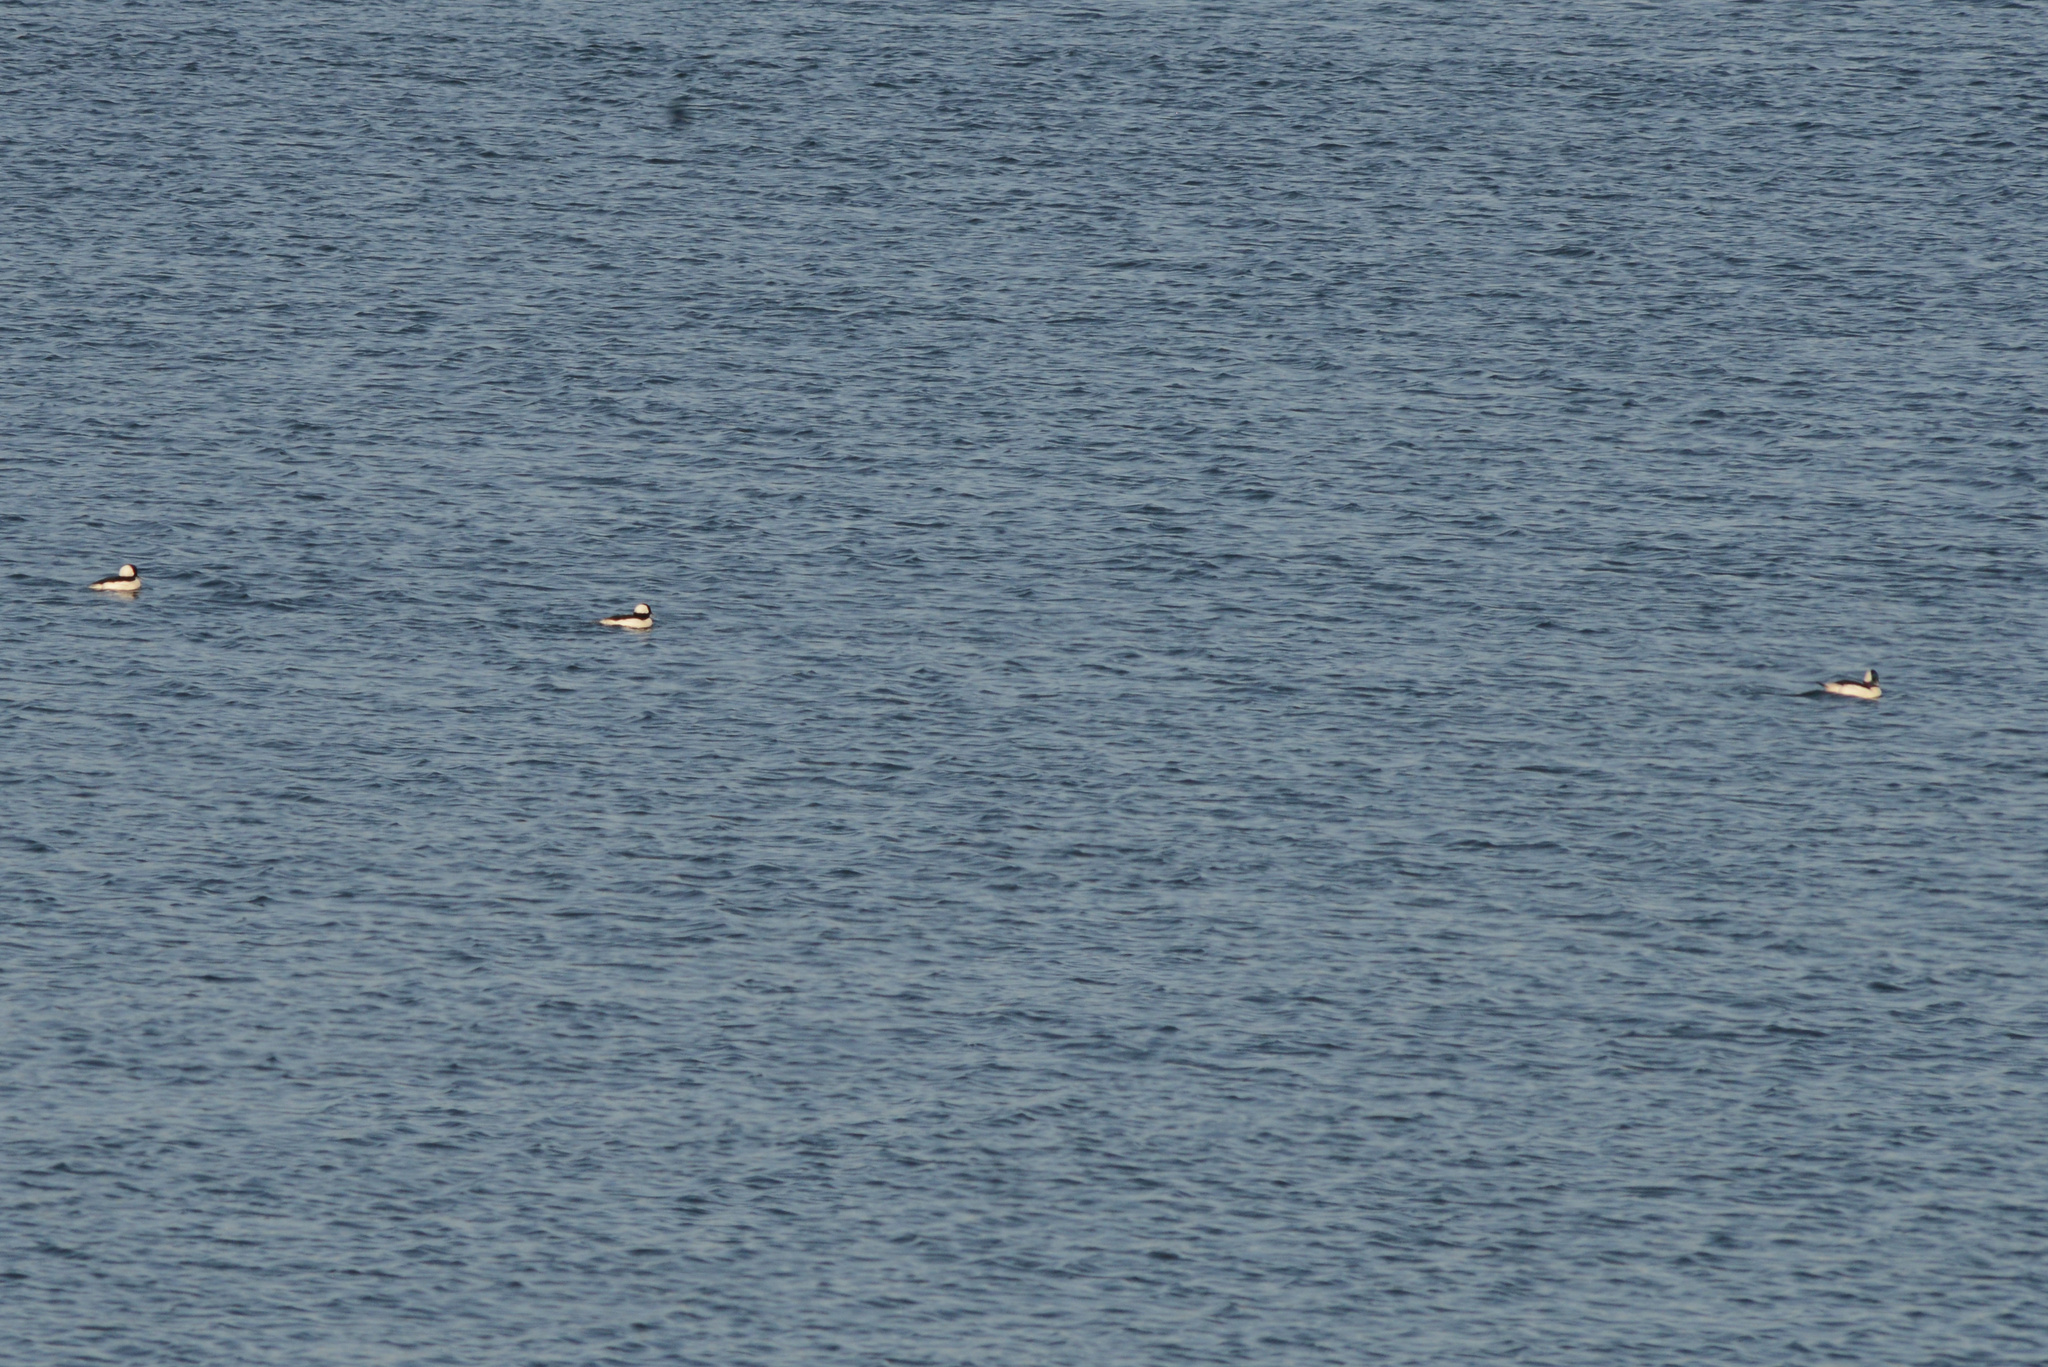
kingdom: Animalia
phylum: Chordata
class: Aves
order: Anseriformes
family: Anatidae
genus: Bucephala
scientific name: Bucephala albeola
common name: Bufflehead
